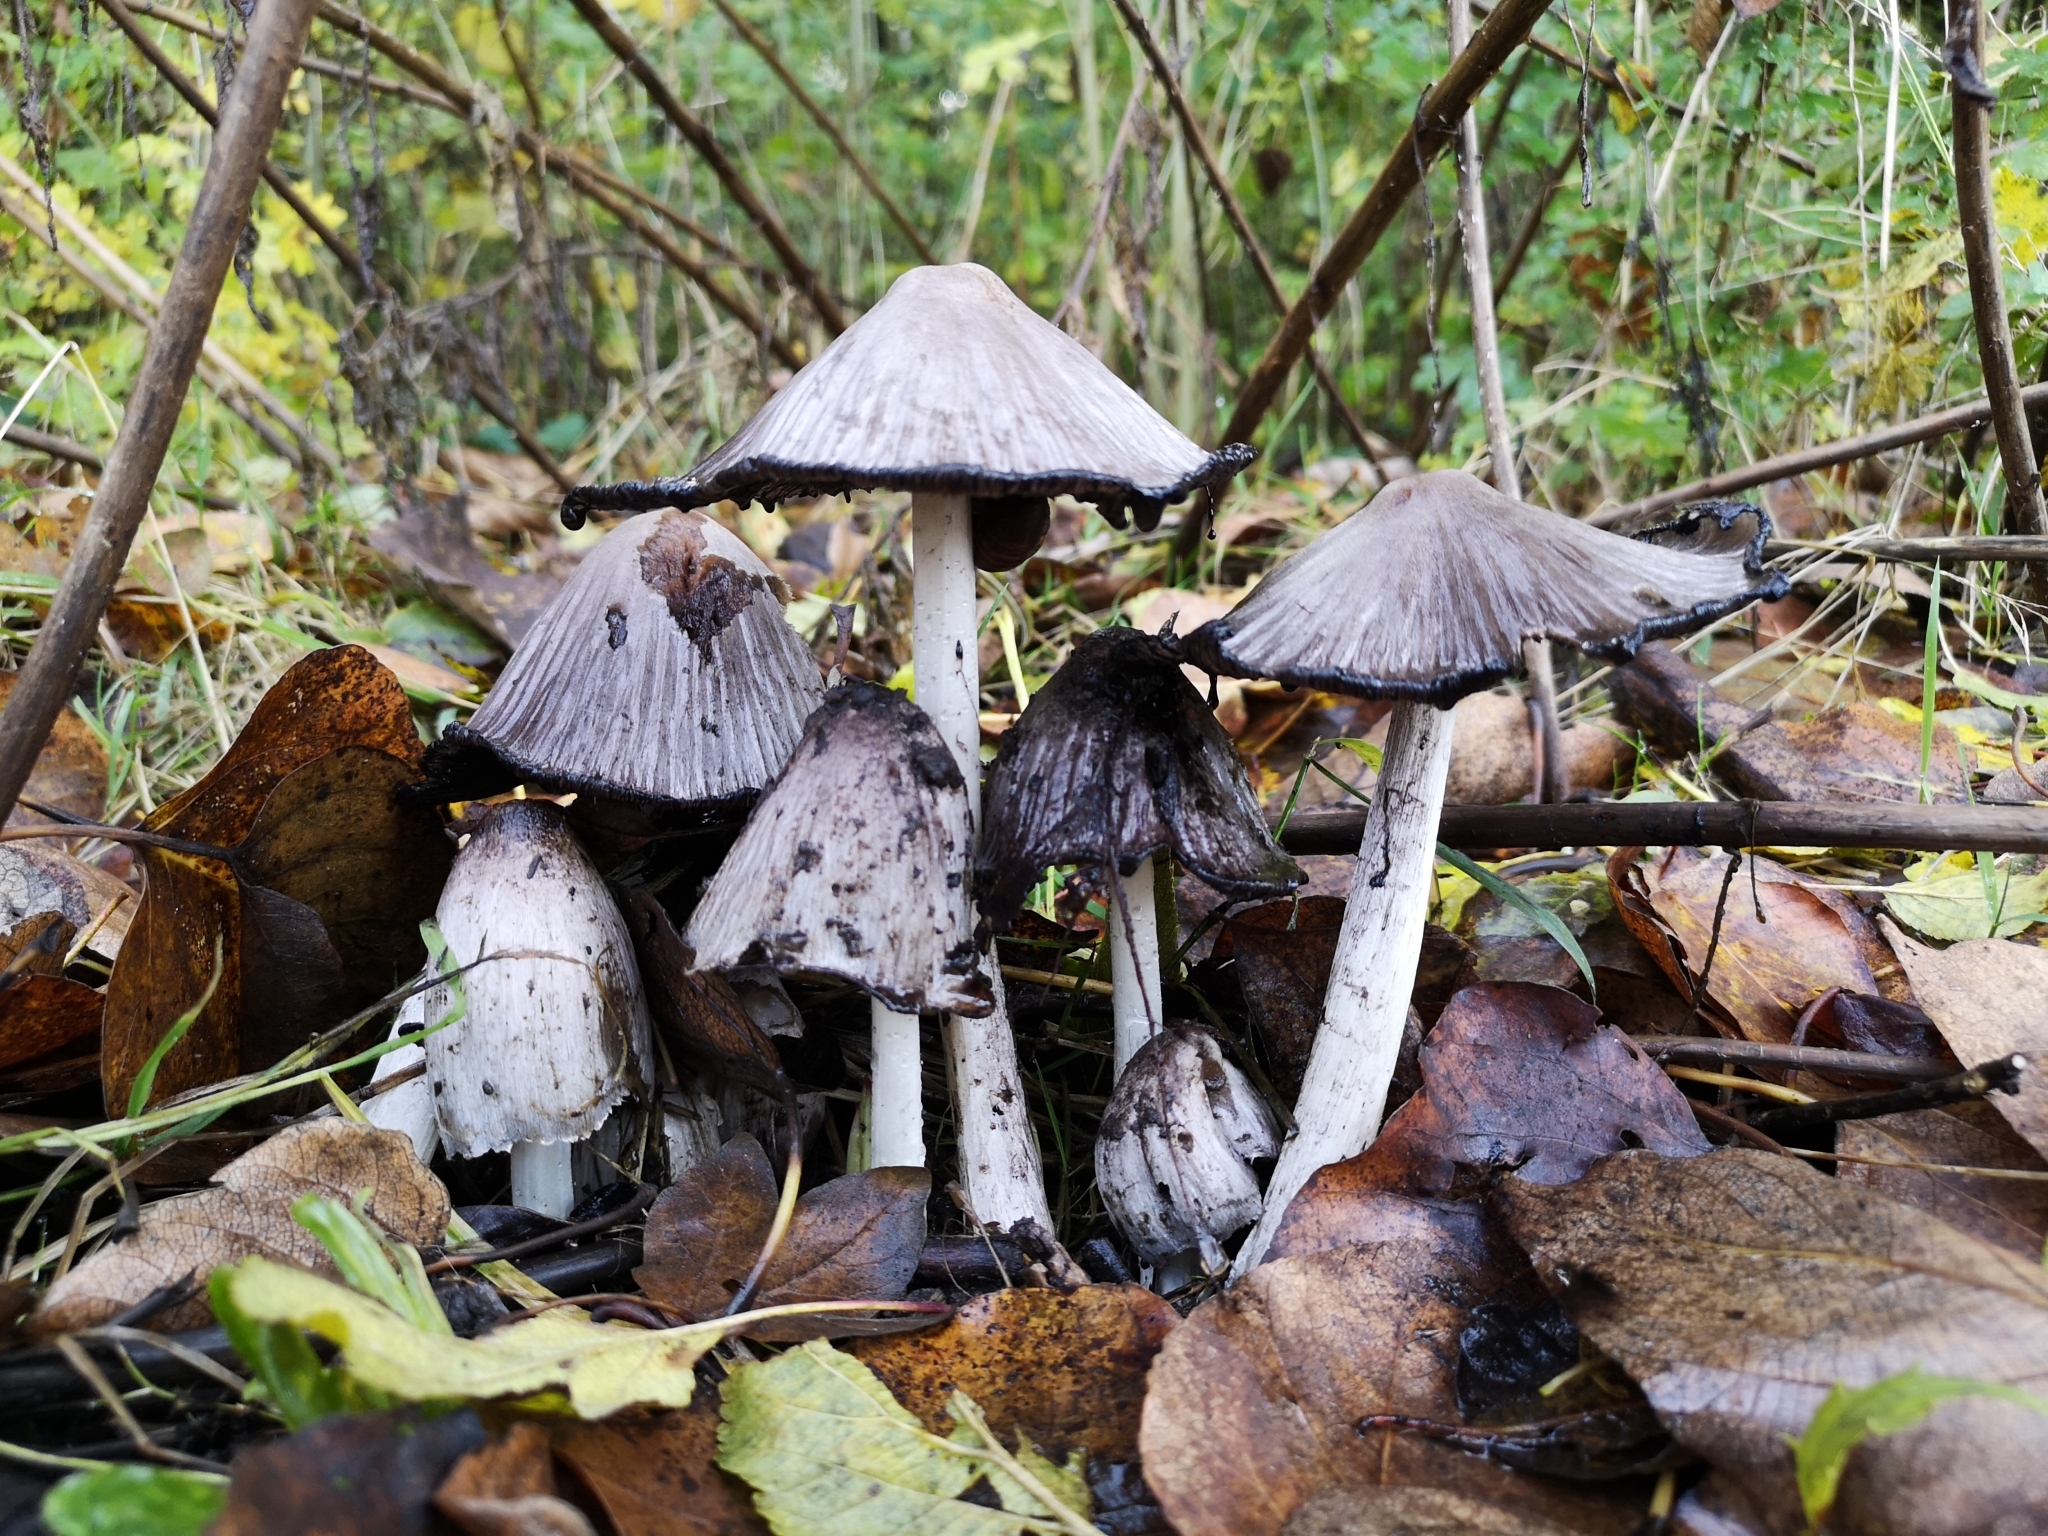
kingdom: Fungi
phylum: Basidiomycota
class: Agaricomycetes
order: Agaricales
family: Psathyrellaceae
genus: Coprinopsis
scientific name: Coprinopsis atramentaria
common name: Common ink-cap
